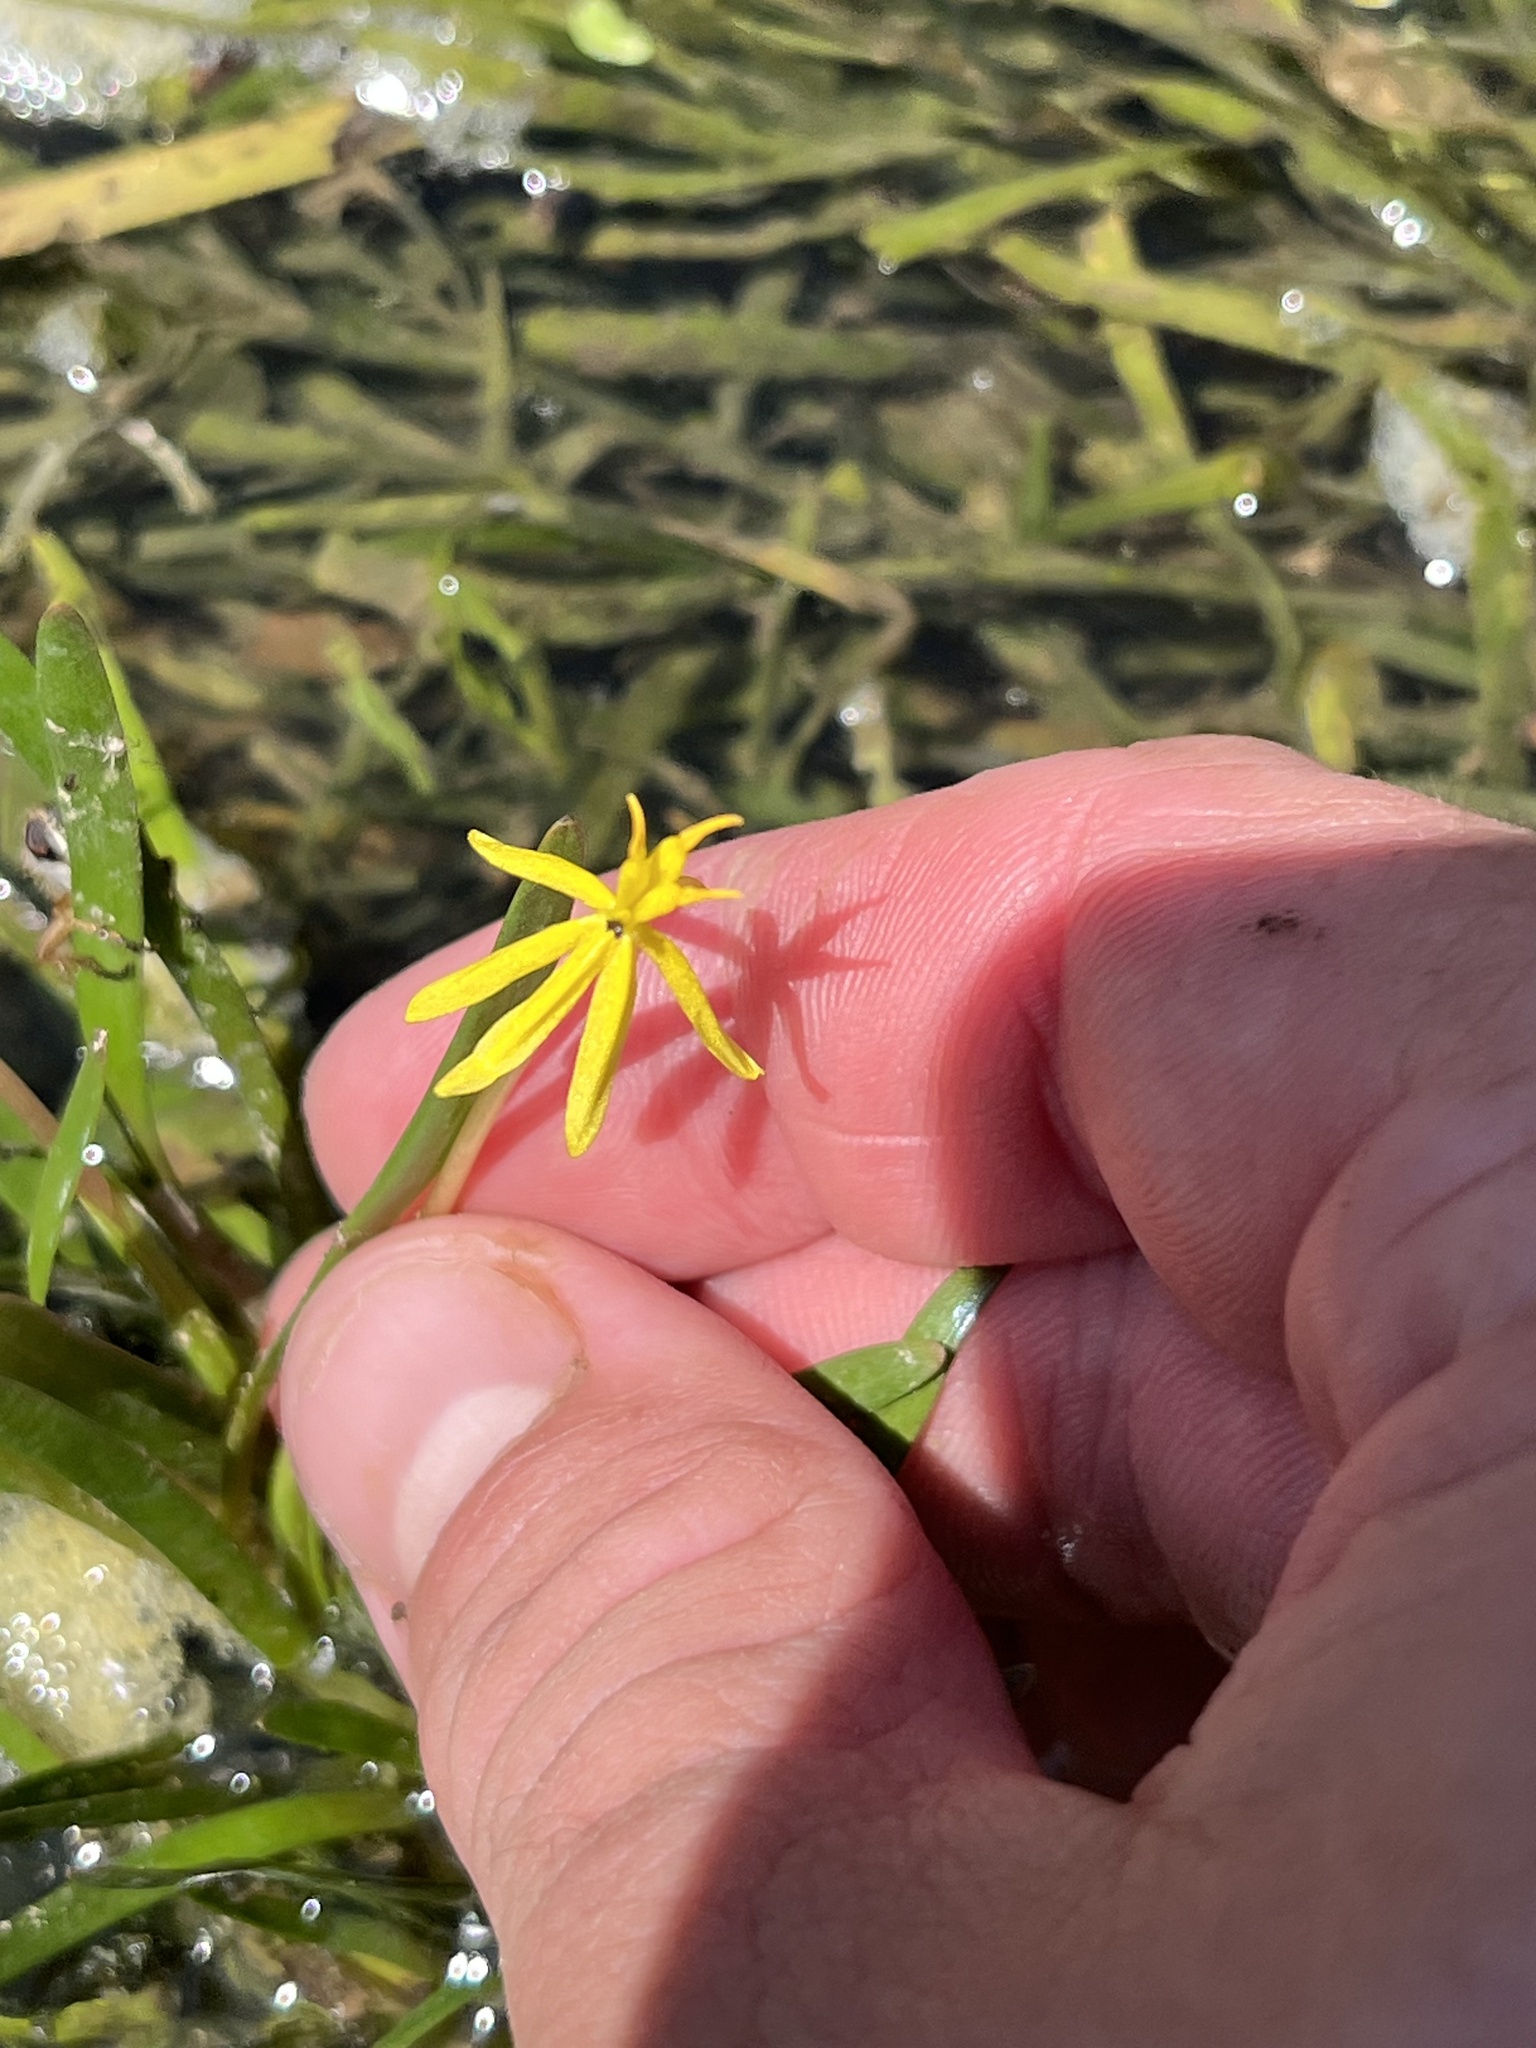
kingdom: Plantae
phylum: Tracheophyta
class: Liliopsida
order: Commelinales
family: Pontederiaceae
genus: Heteranthera
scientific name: Heteranthera dubia
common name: Grass-leaved mud plantain
